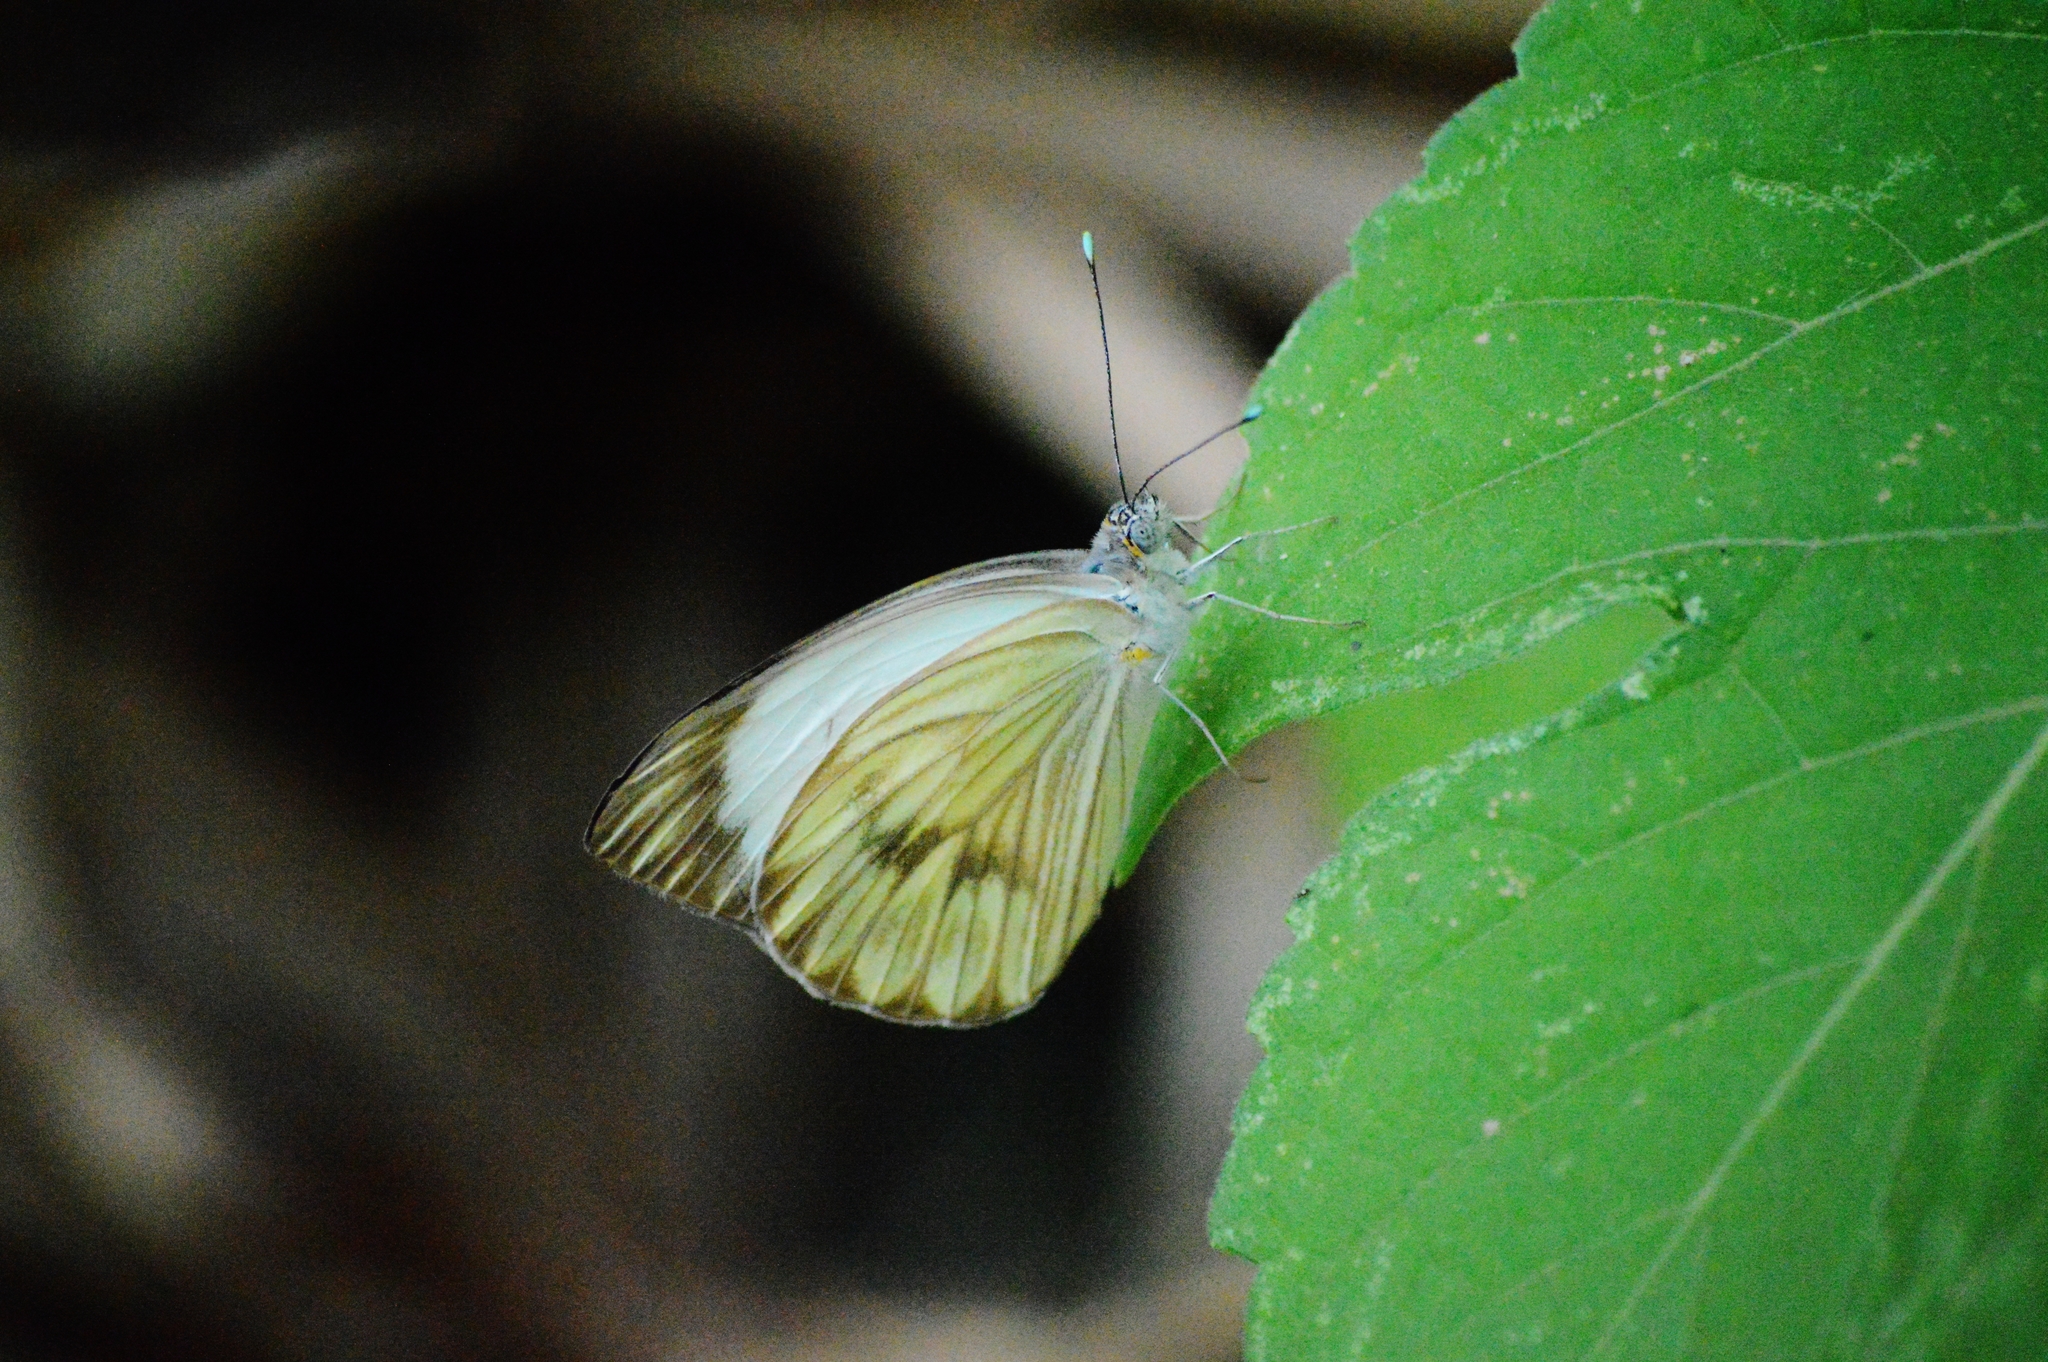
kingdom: Animalia
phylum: Arthropoda
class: Insecta
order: Lepidoptera
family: Pieridae
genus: Ascia
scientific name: Ascia monuste
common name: Great southern white
